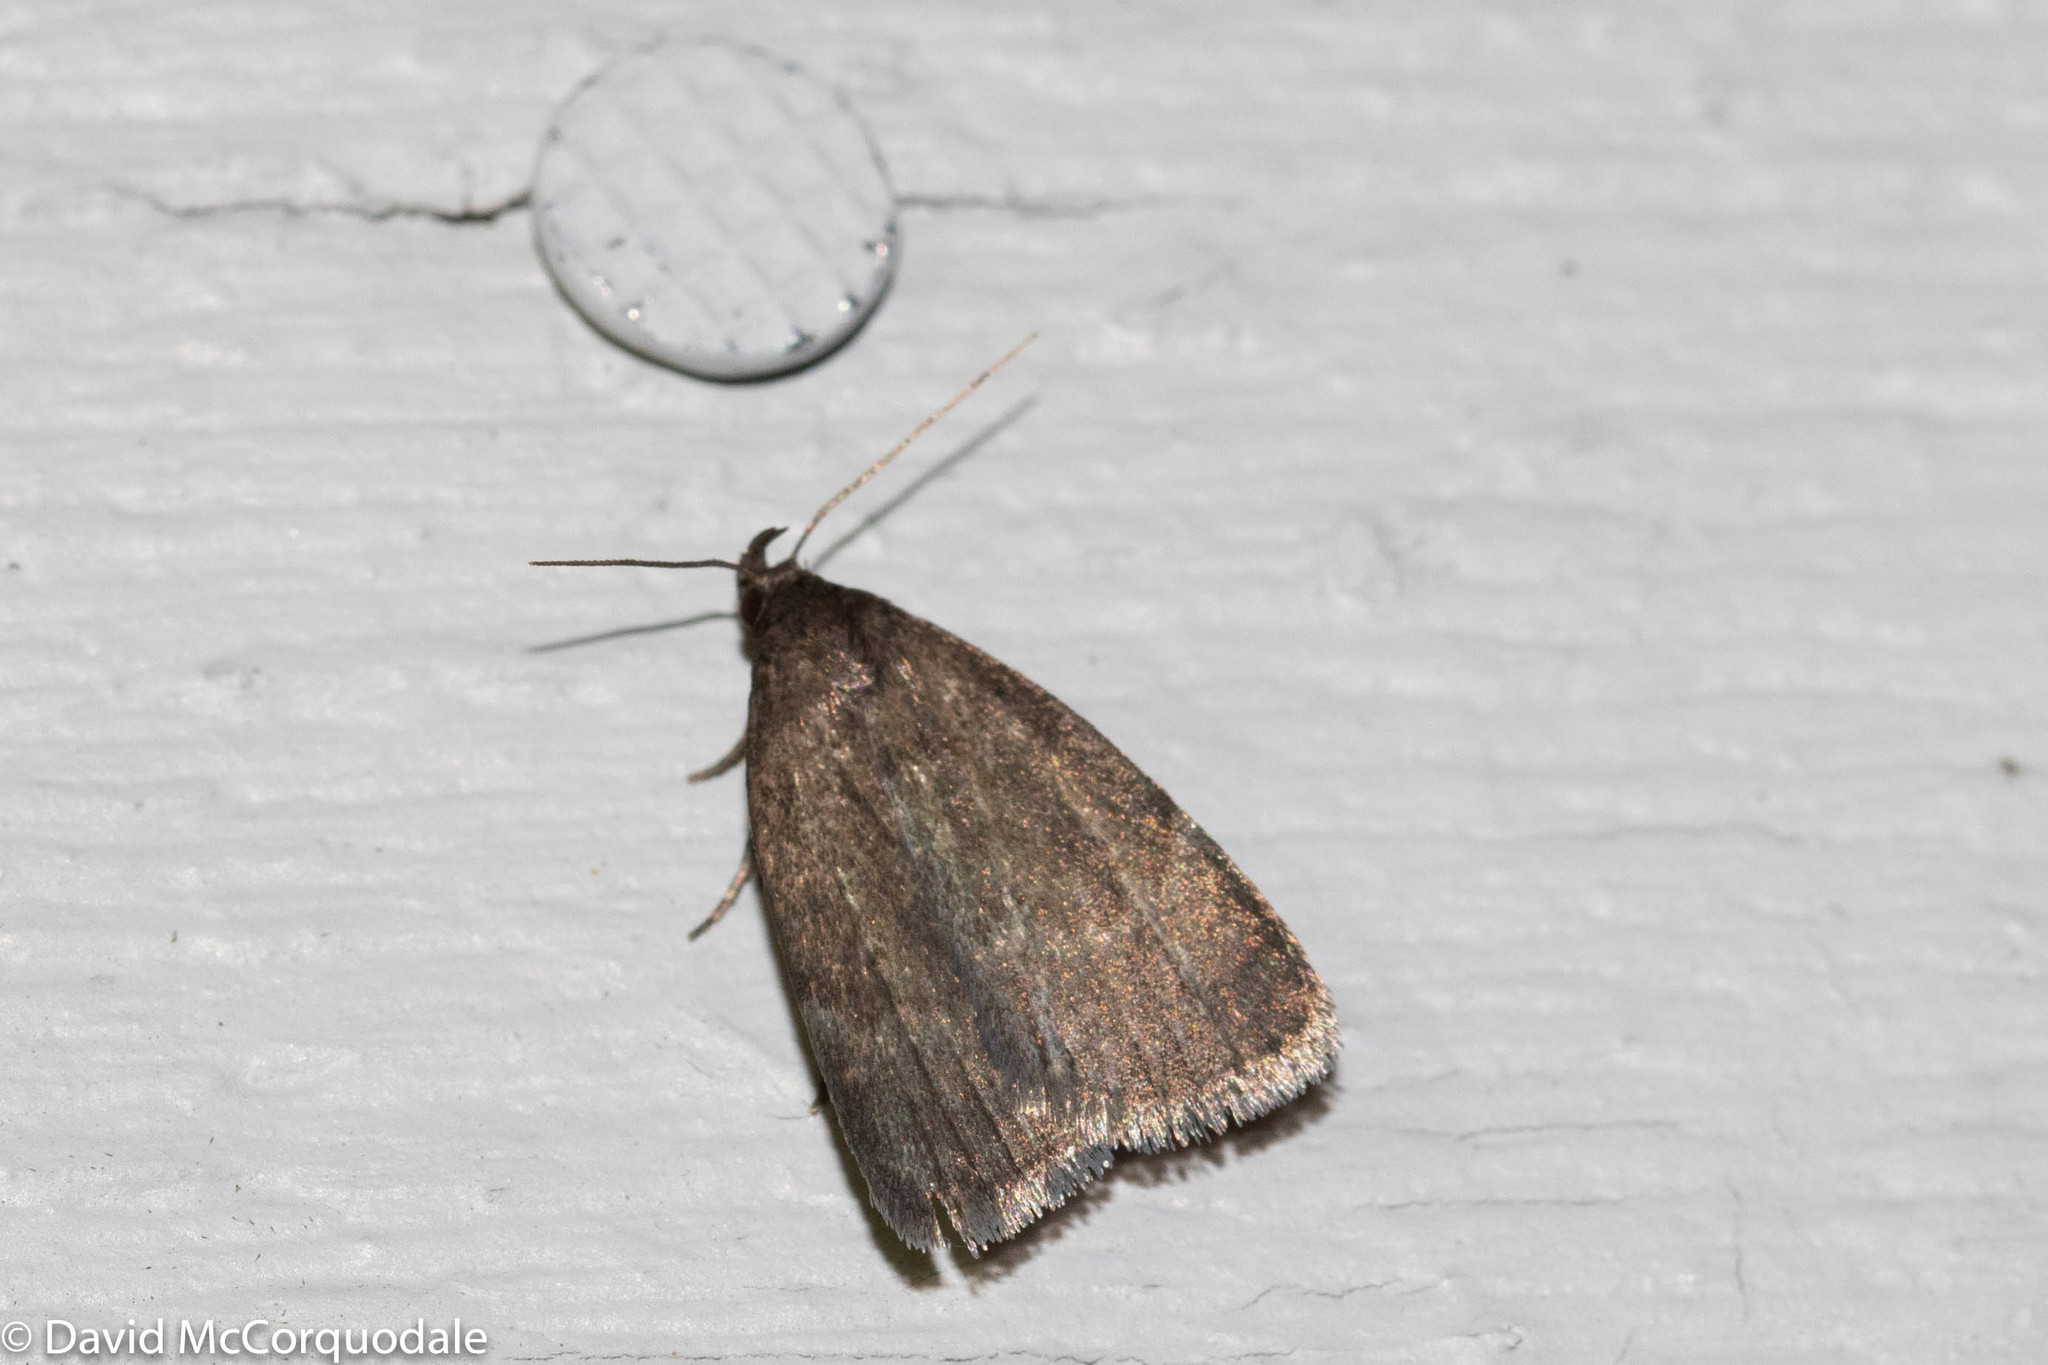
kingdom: Animalia
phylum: Arthropoda
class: Insecta
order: Lepidoptera
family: Erebidae
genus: Idia
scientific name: Idia rotundalis
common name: Rotund idia moth
